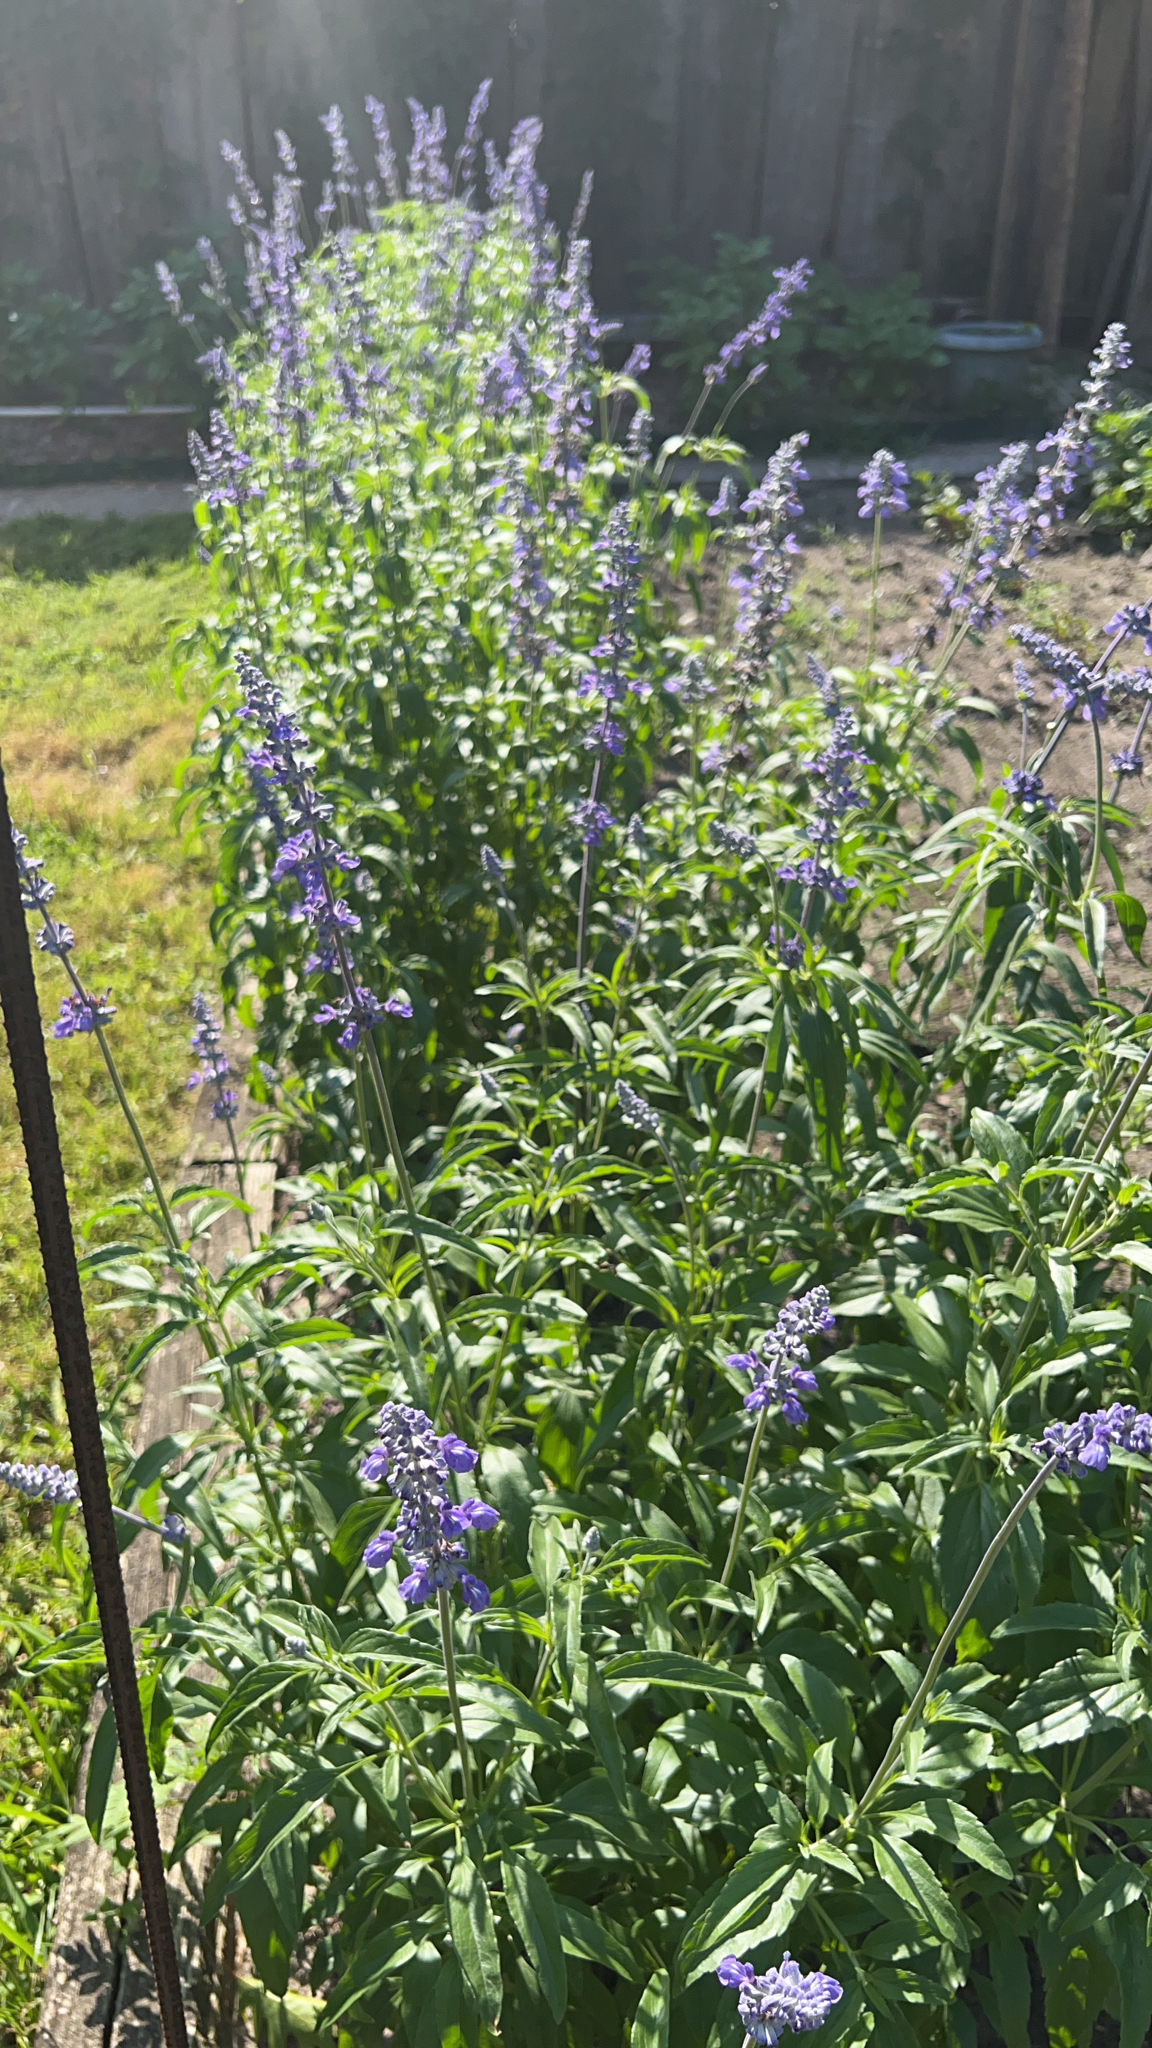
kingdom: Plantae
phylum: Tracheophyta
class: Magnoliopsida
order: Lamiales
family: Lamiaceae
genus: Salvia
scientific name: Salvia farinacea
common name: Mealy sage
